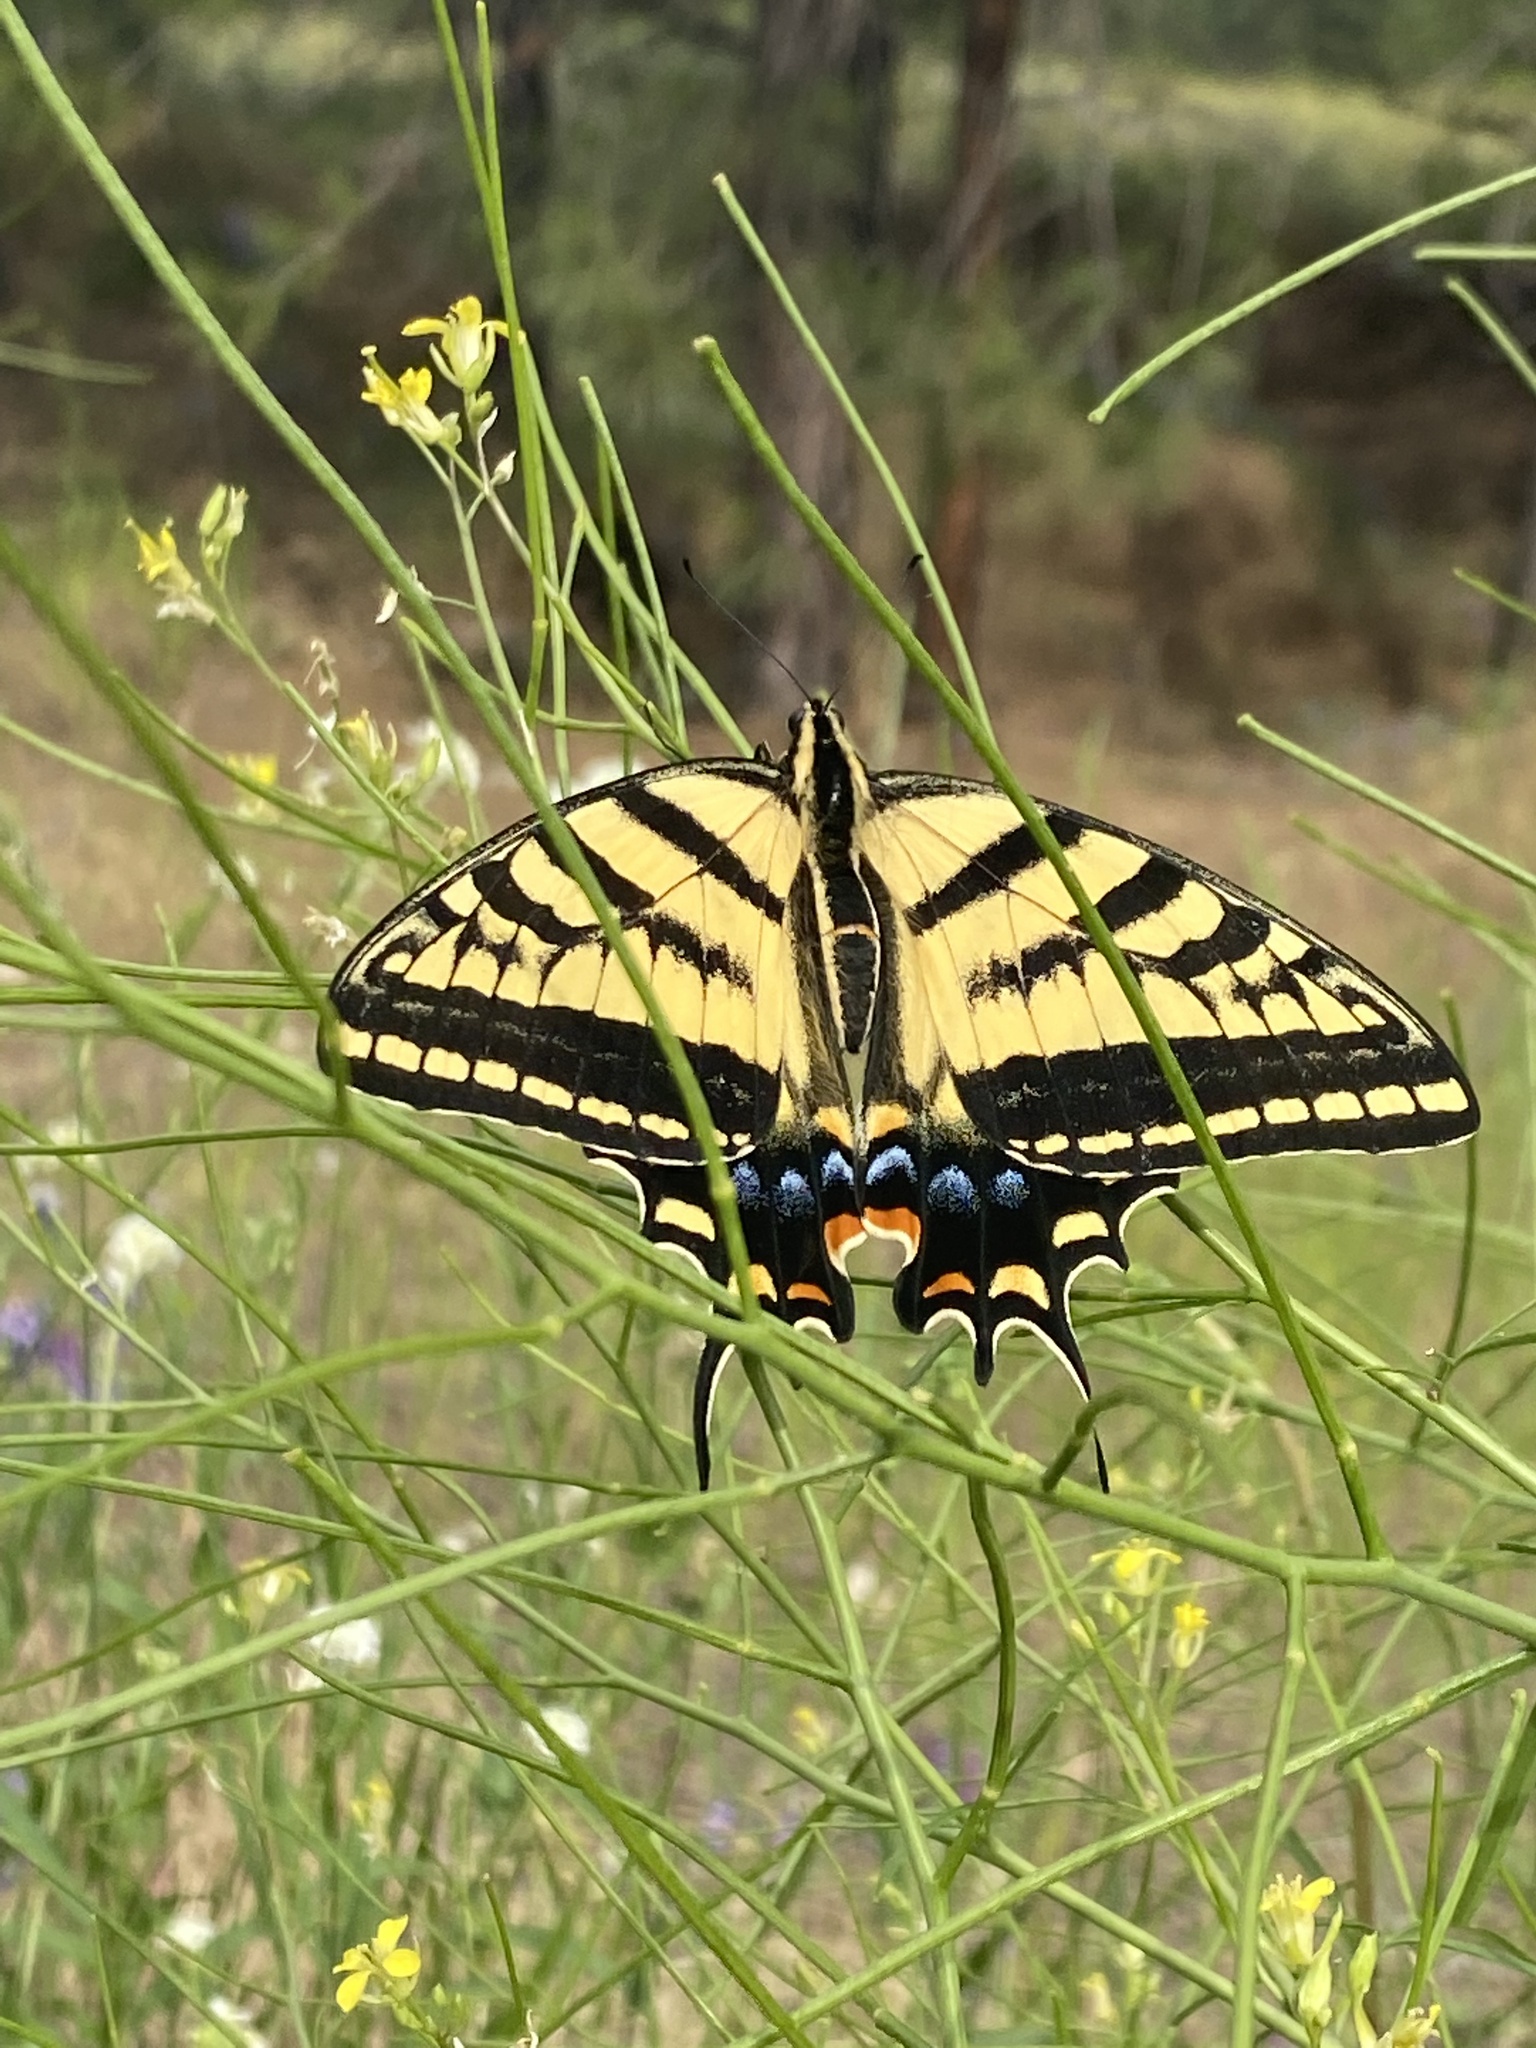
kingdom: Animalia
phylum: Arthropoda
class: Insecta
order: Lepidoptera
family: Papilionidae
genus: Papilio
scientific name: Papilio multicaudata
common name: Two-tailed tiger swallowtail
